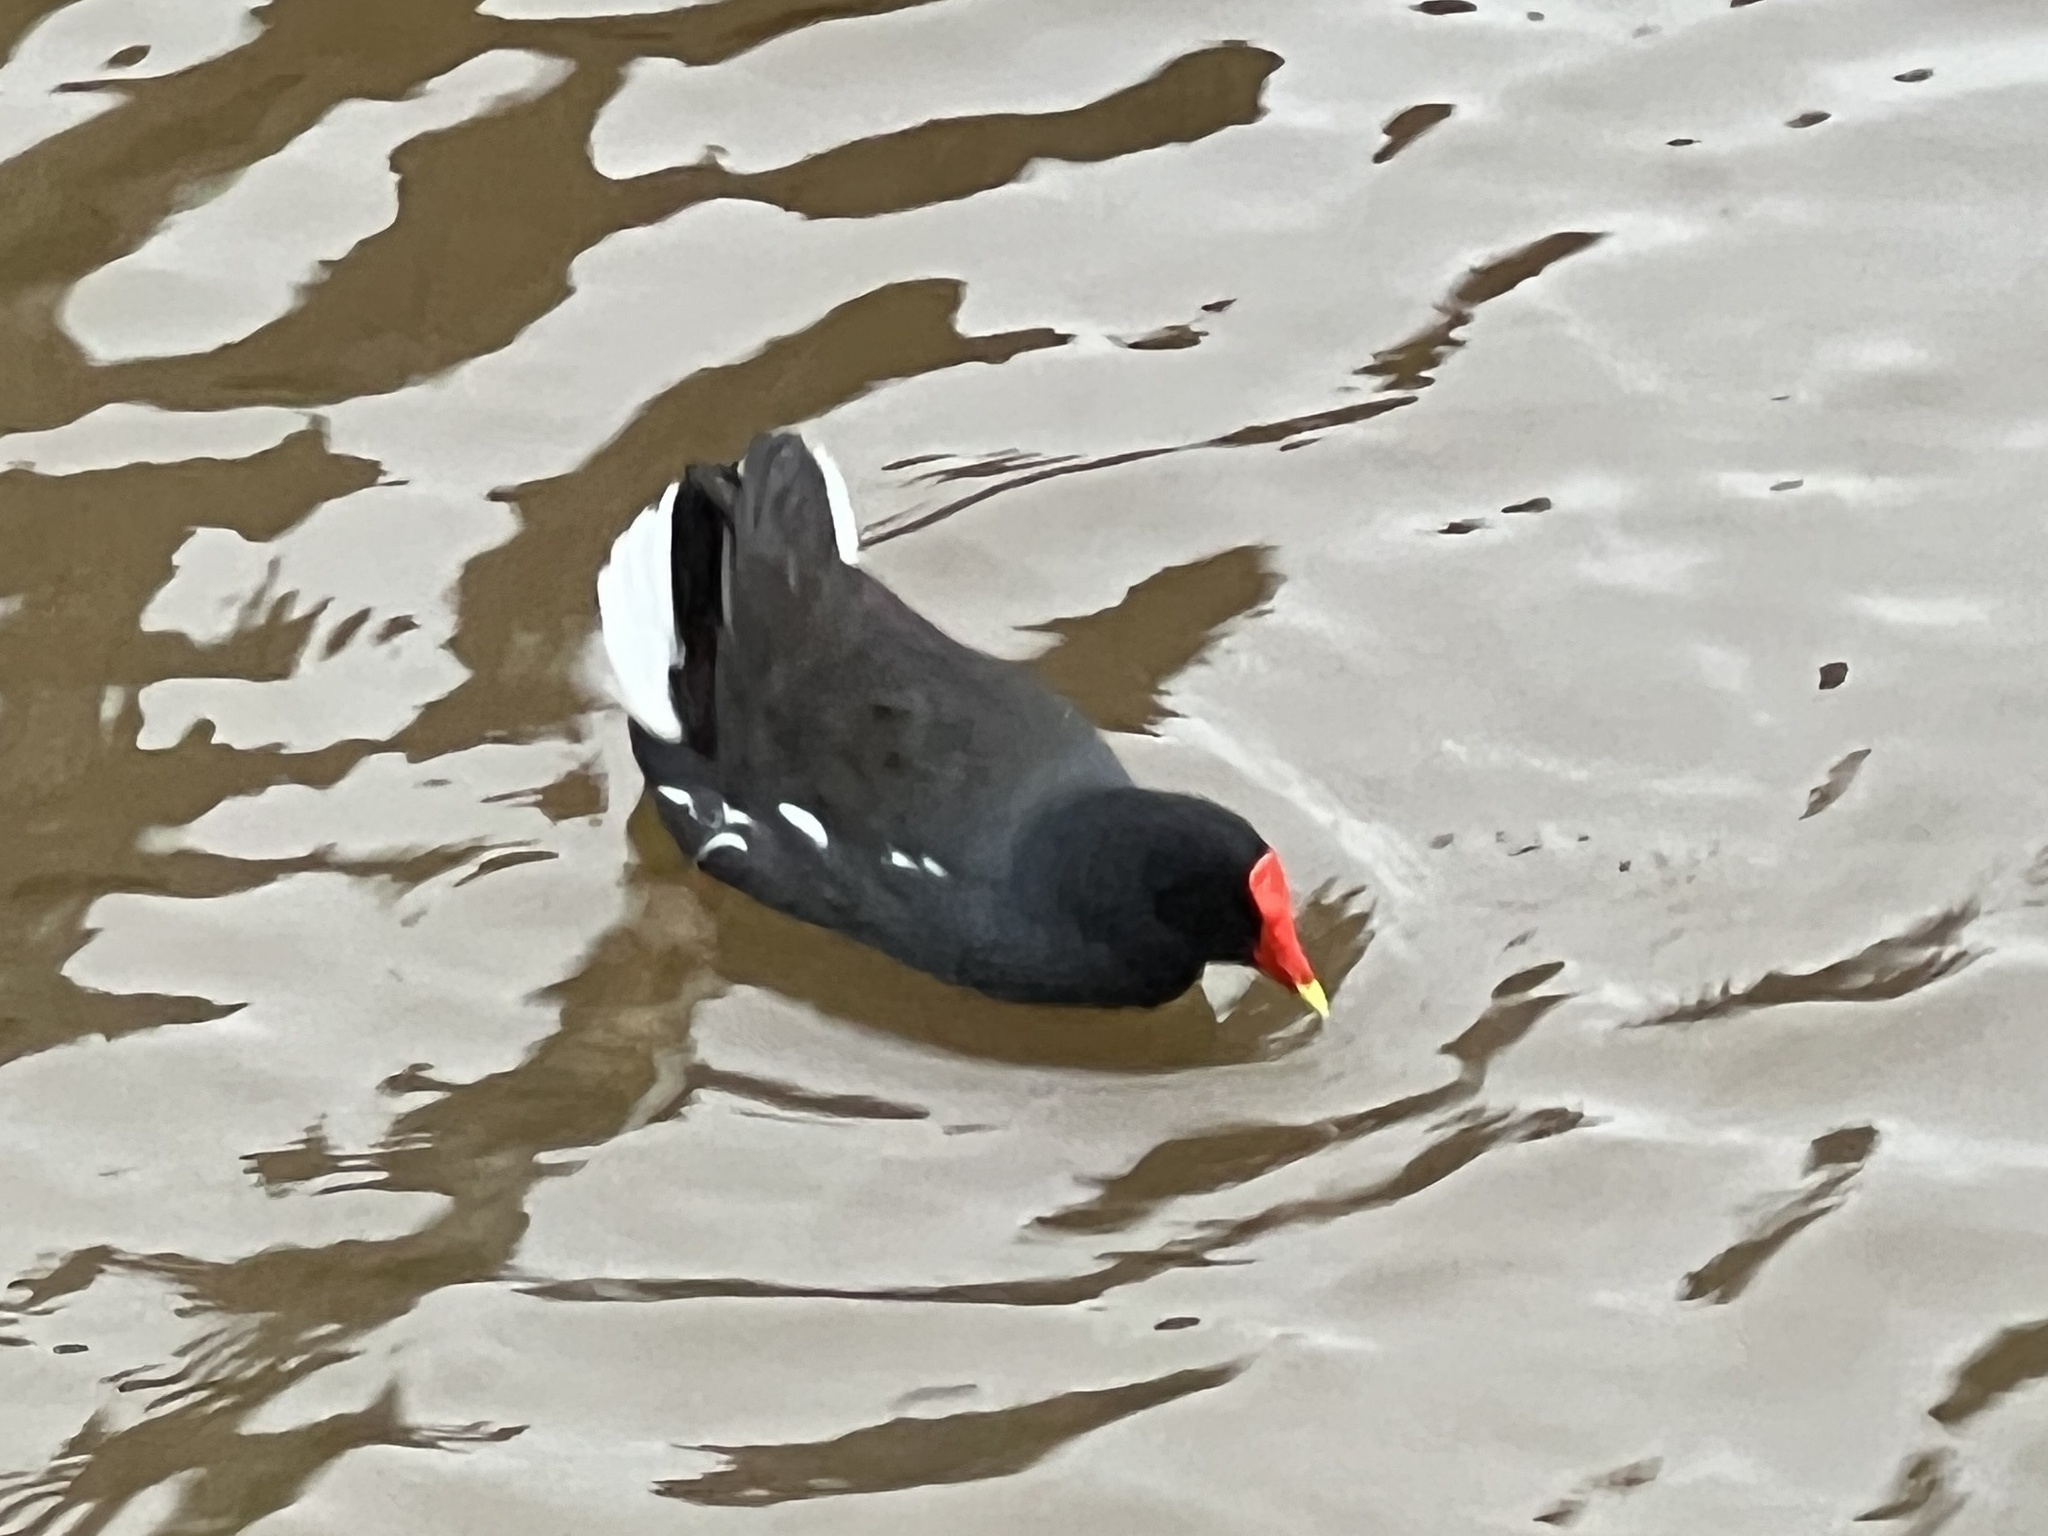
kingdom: Animalia
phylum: Chordata
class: Aves
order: Gruiformes
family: Rallidae
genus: Gallinula
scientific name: Gallinula chloropus
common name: Common moorhen
